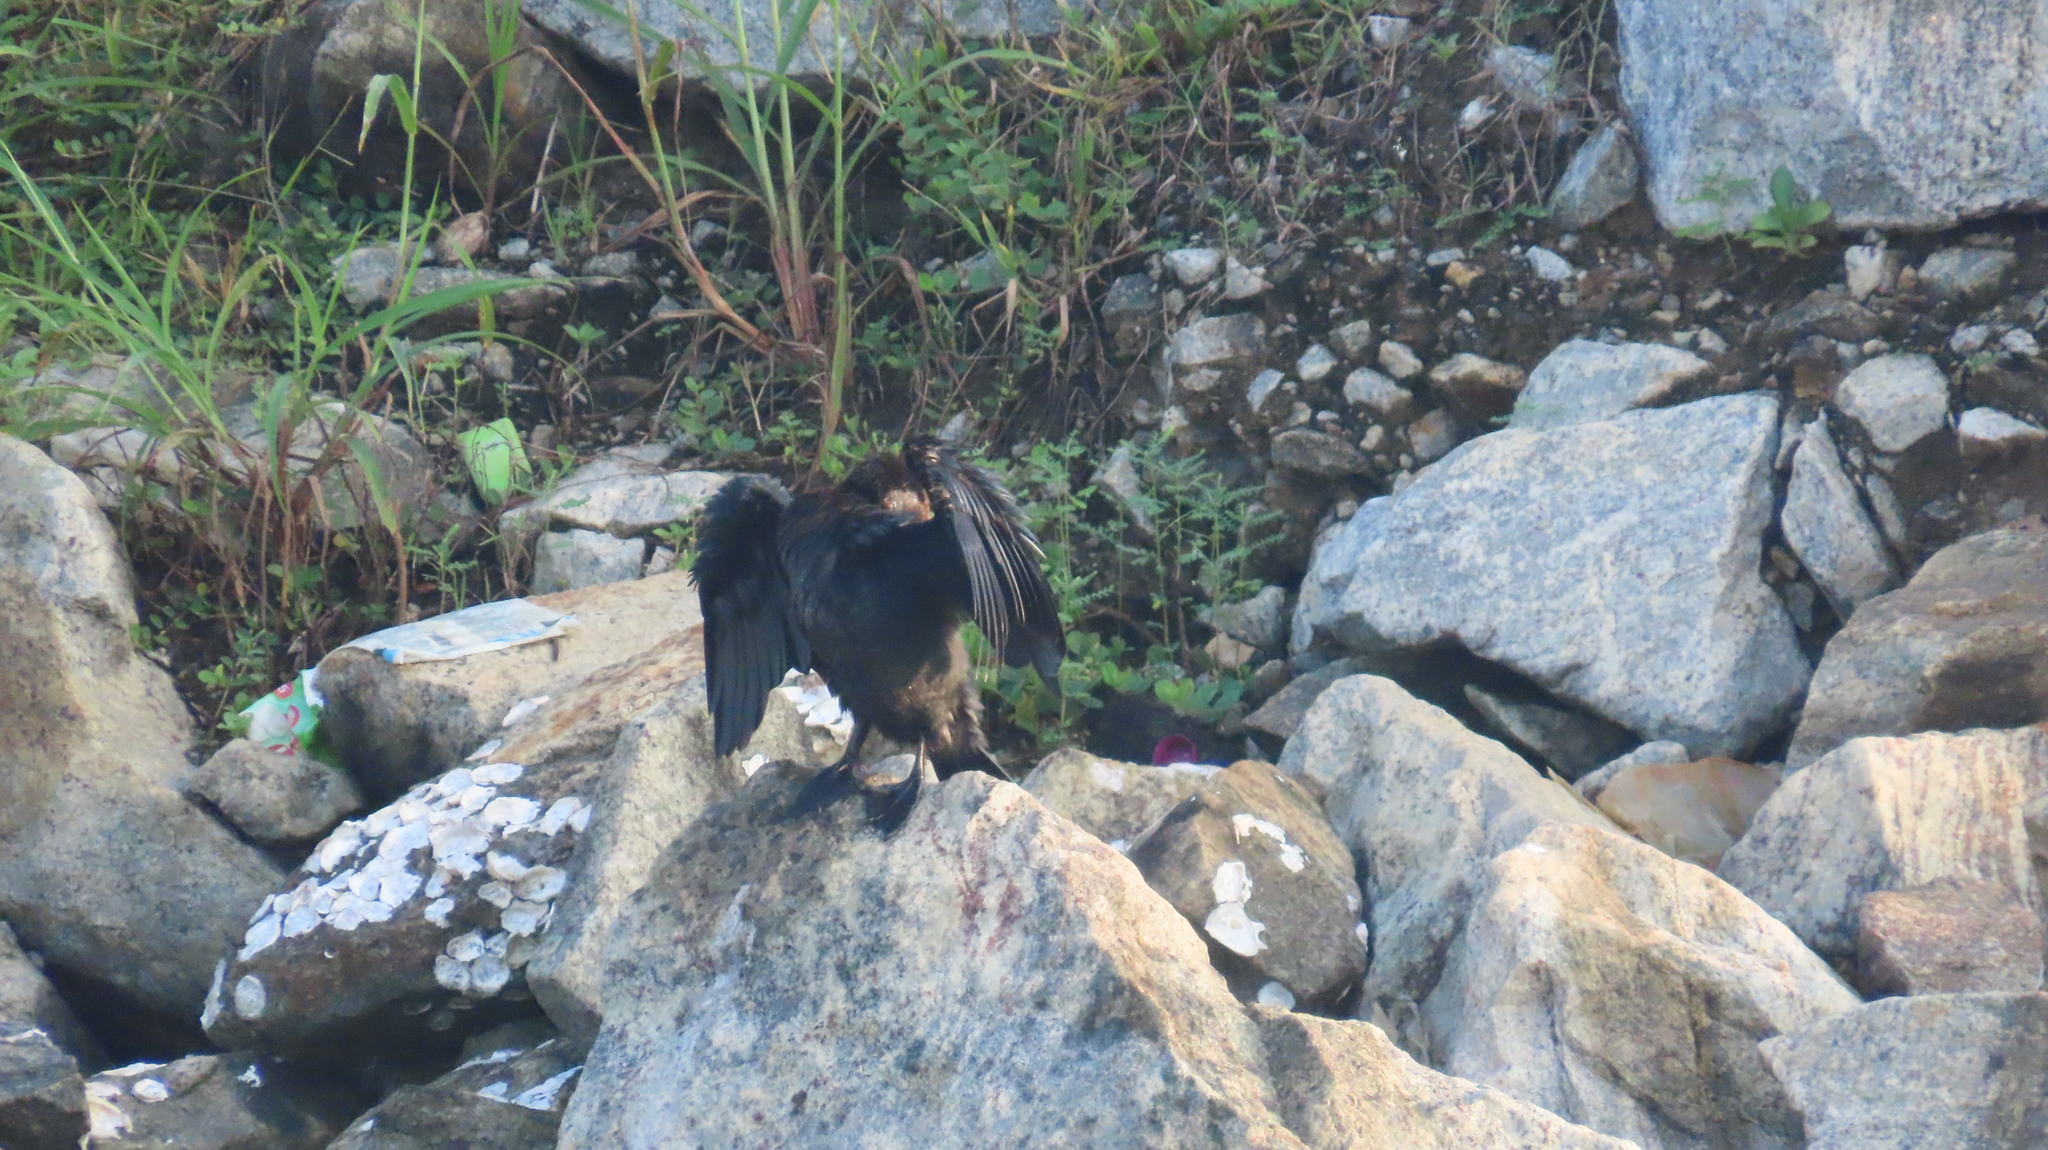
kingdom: Animalia
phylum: Chordata
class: Aves
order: Suliformes
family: Phalacrocoracidae
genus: Microcarbo
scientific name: Microcarbo niger
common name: Little cormorant
